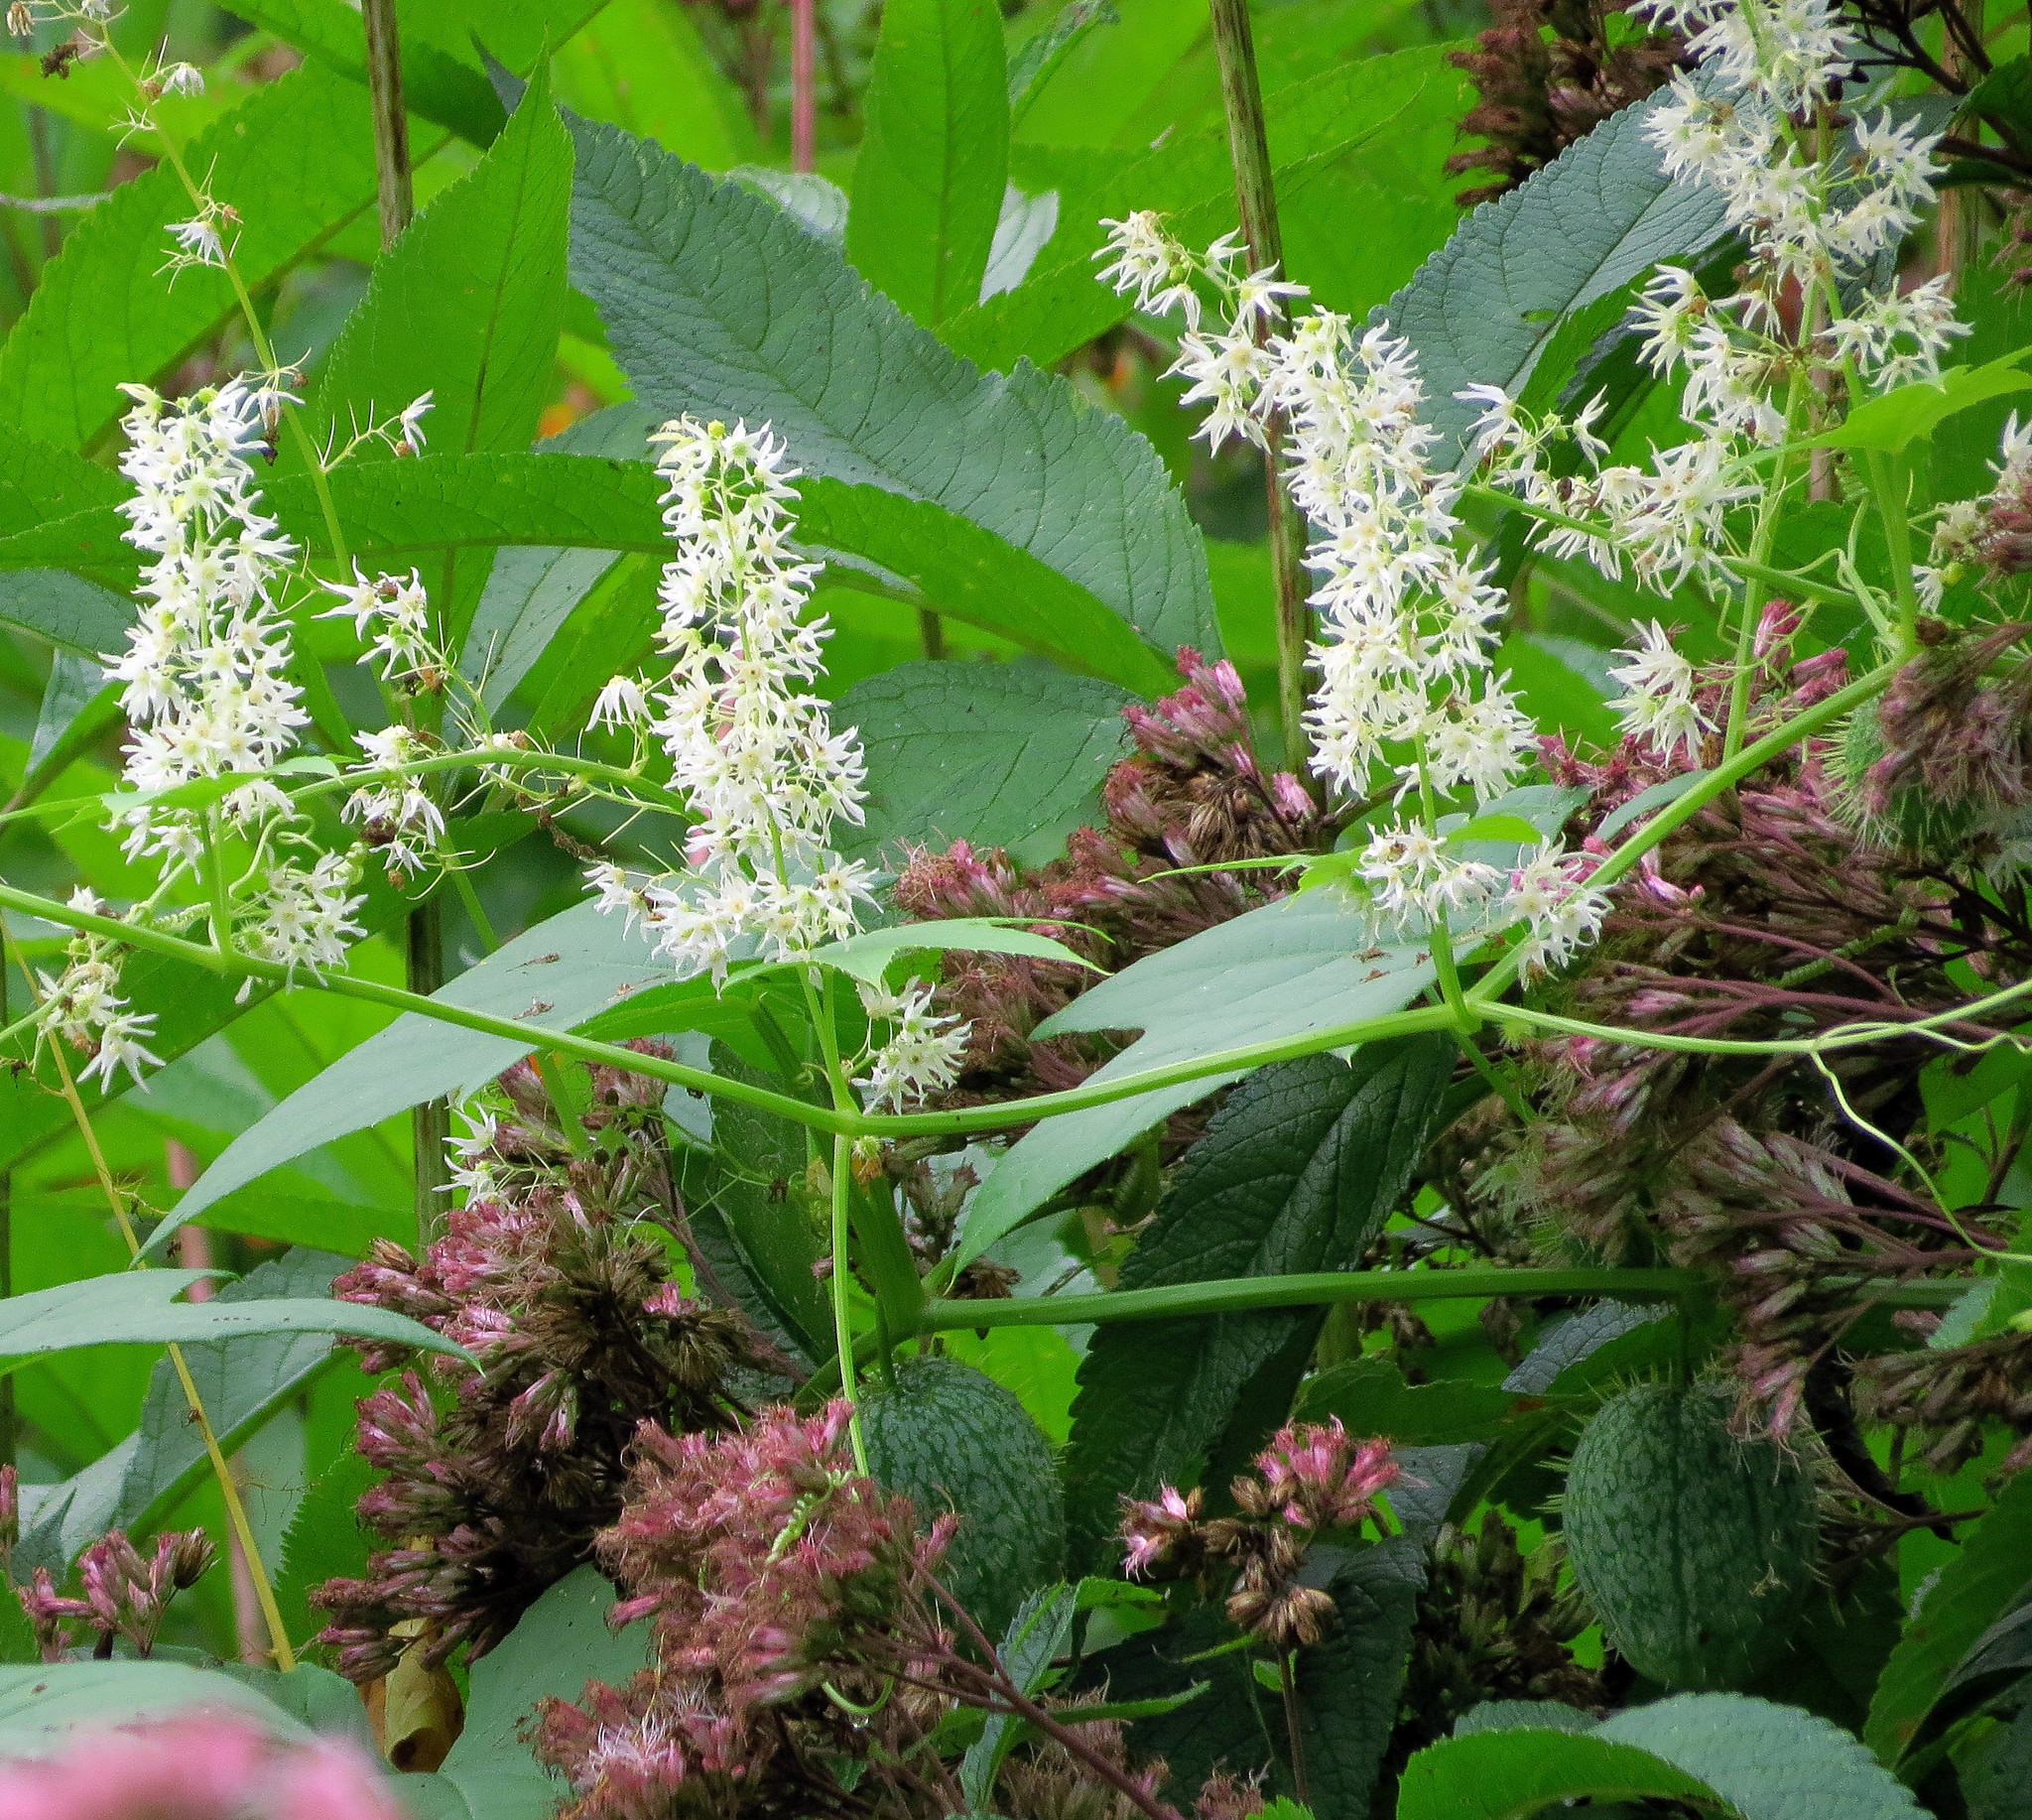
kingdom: Plantae
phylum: Tracheophyta
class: Magnoliopsida
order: Cucurbitales
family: Cucurbitaceae
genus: Echinocystis
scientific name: Echinocystis lobata
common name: Wild cucumber
